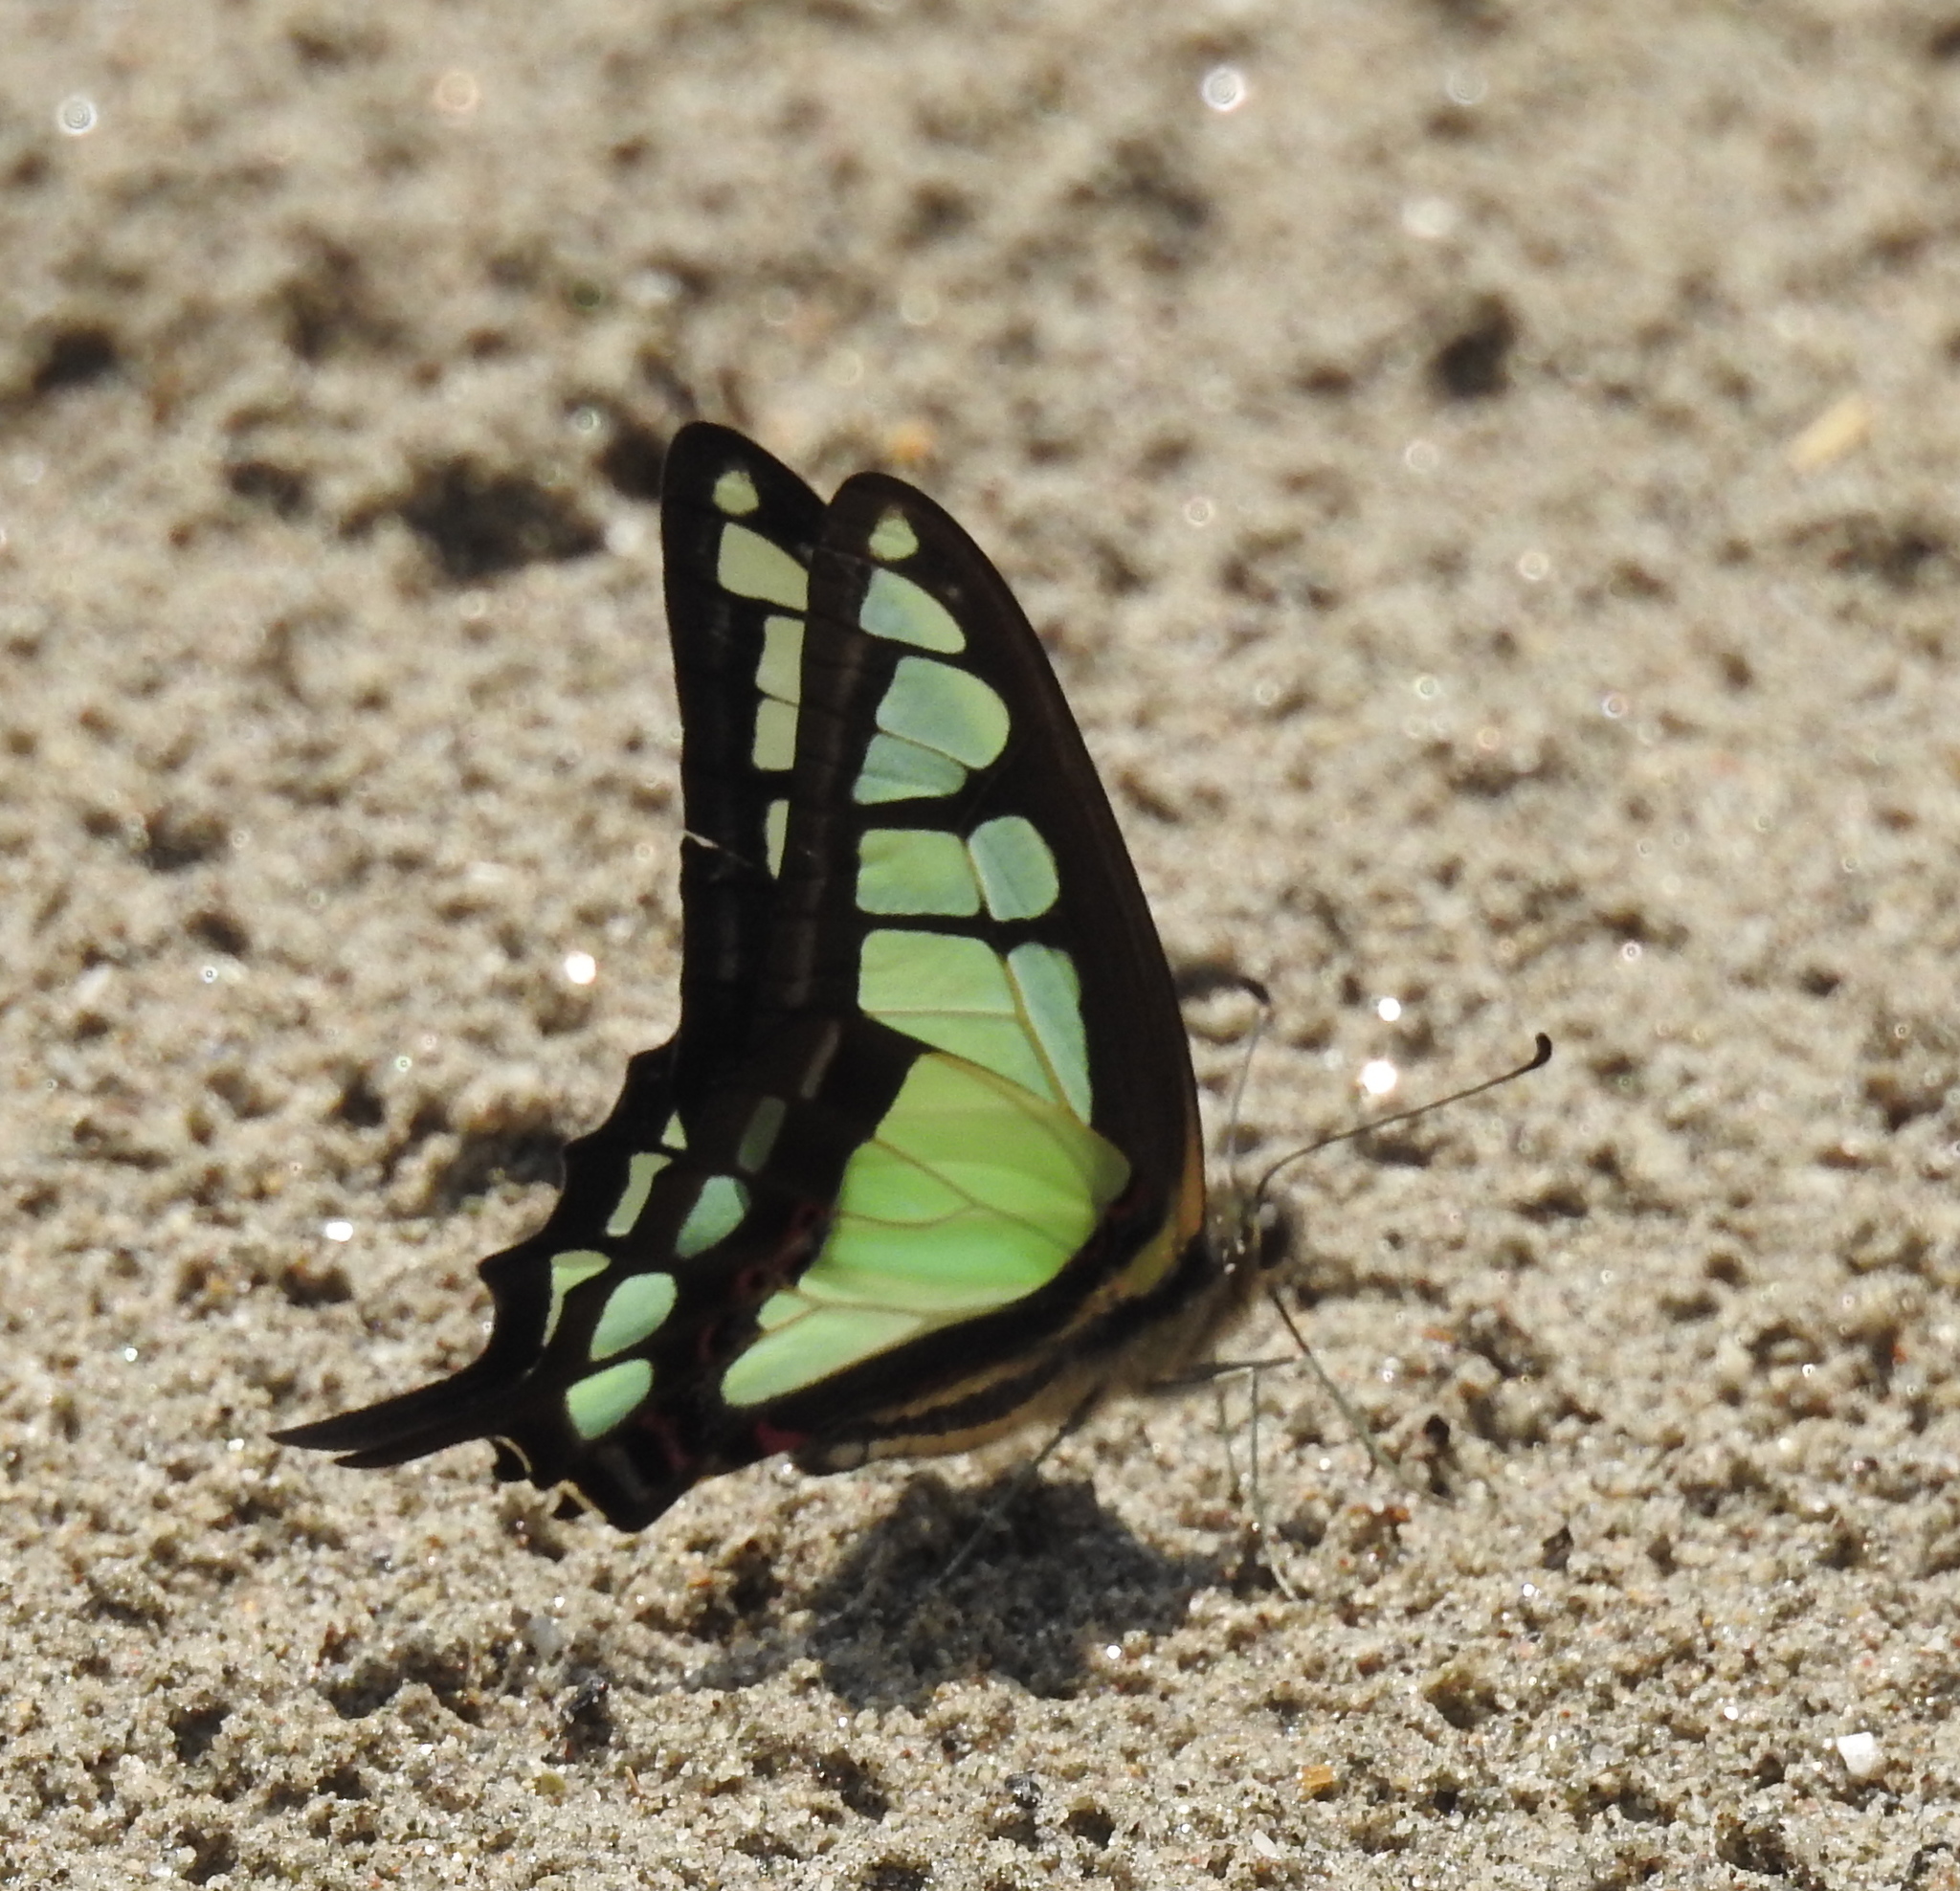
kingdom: Animalia
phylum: Arthropoda
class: Insecta
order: Lepidoptera
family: Papilionidae
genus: Graphium
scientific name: Graphium cloanthus
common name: Glassy bluebottle
